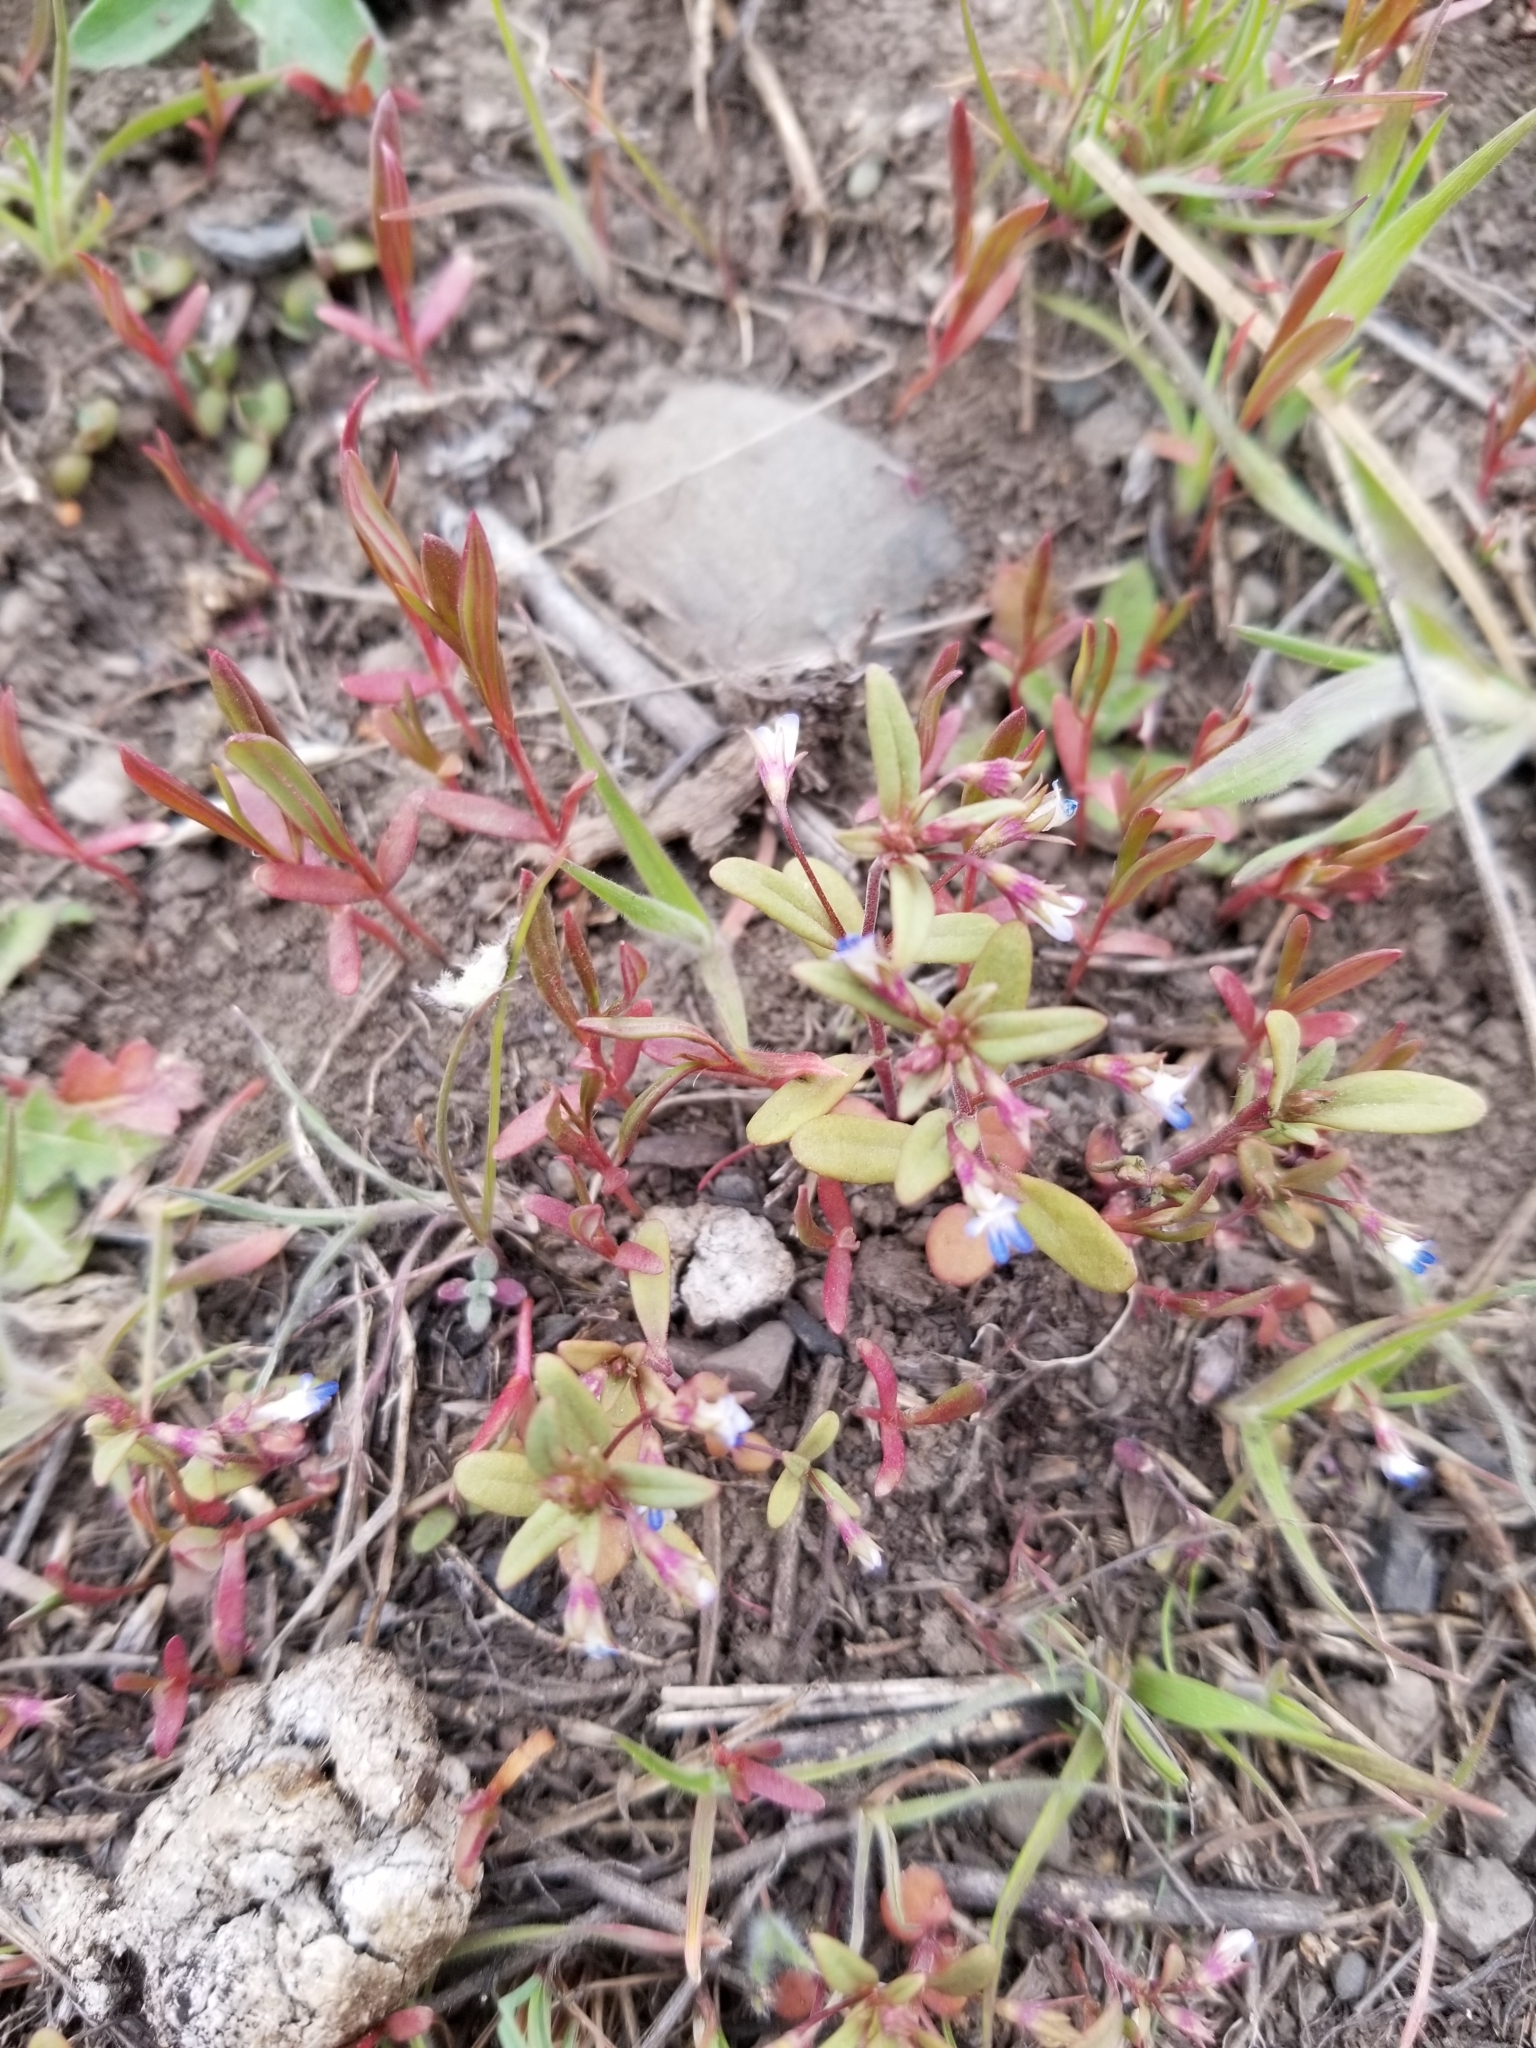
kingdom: Plantae
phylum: Tracheophyta
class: Magnoliopsida
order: Lamiales
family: Plantaginaceae
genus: Collinsia
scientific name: Collinsia parviflora
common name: Blue-lips
